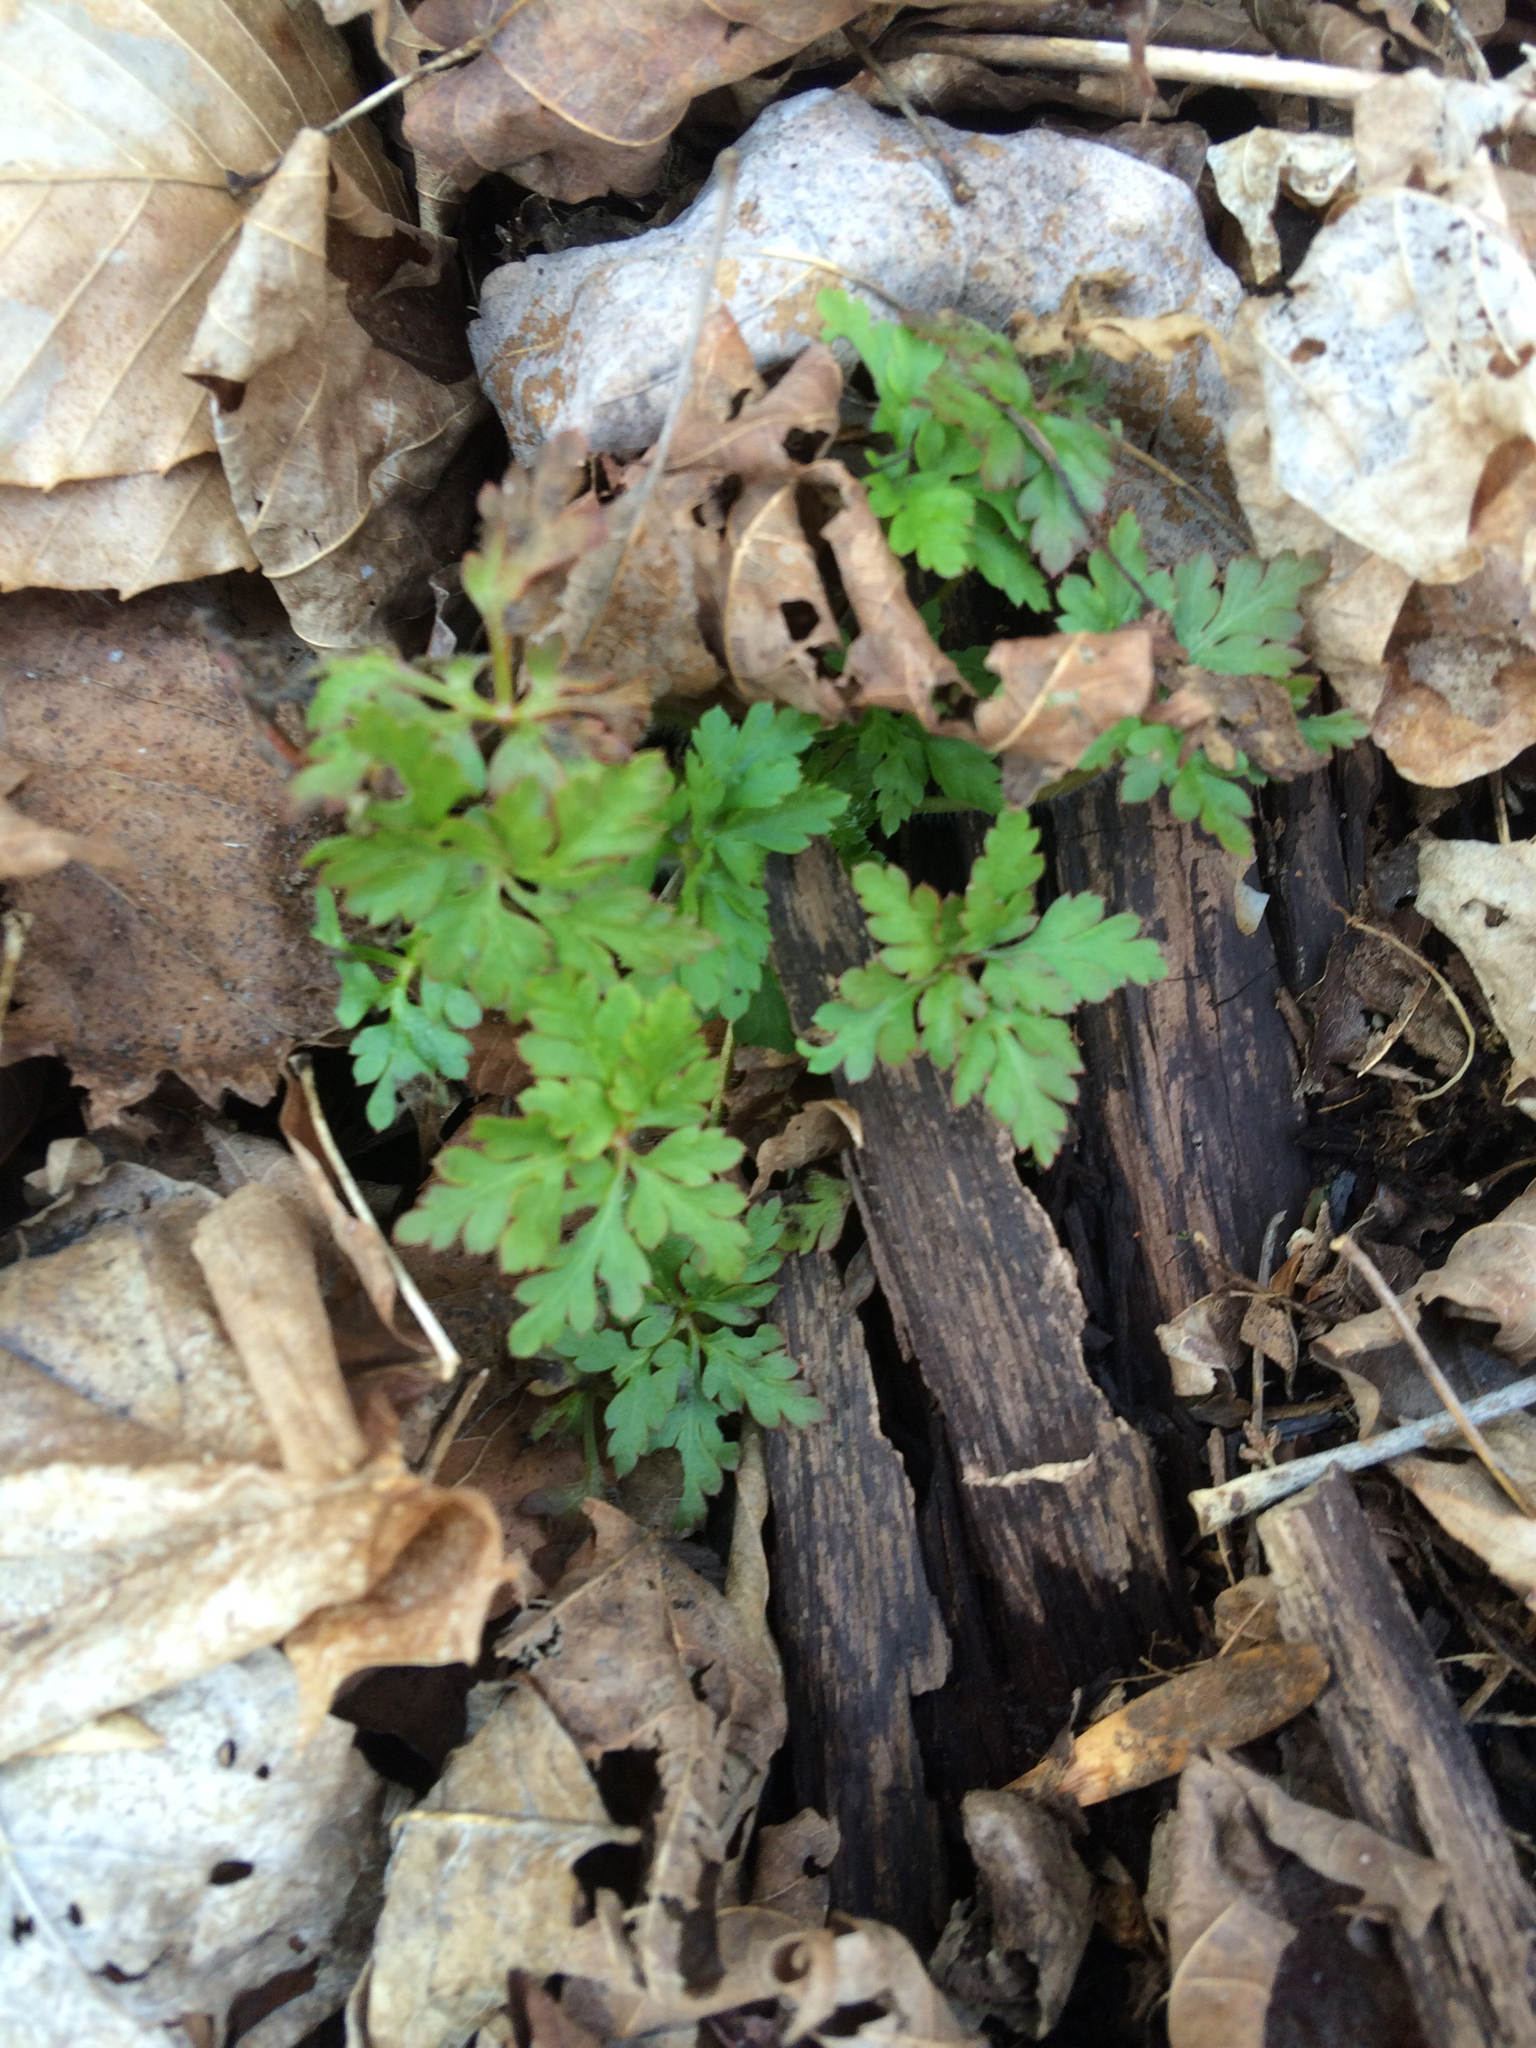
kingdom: Plantae
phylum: Tracheophyta
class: Magnoliopsida
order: Geraniales
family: Geraniaceae
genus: Geranium
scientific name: Geranium robertianum
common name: Herb-robert
